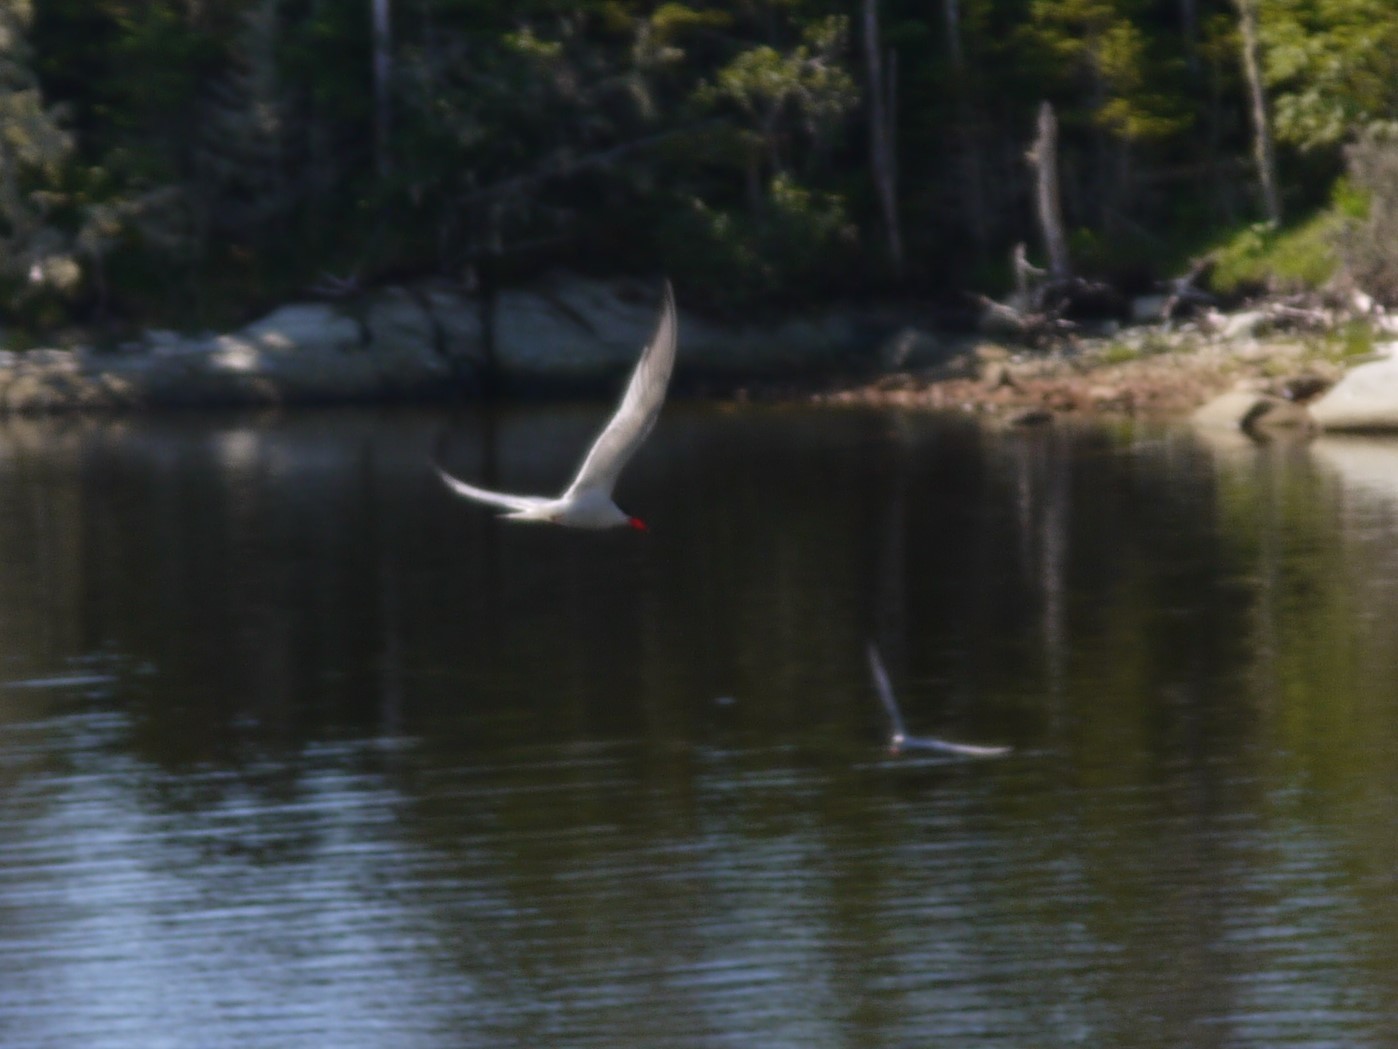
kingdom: Animalia
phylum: Chordata
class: Aves
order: Charadriiformes
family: Laridae
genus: Sterna
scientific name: Sterna hirundo
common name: Common tern
